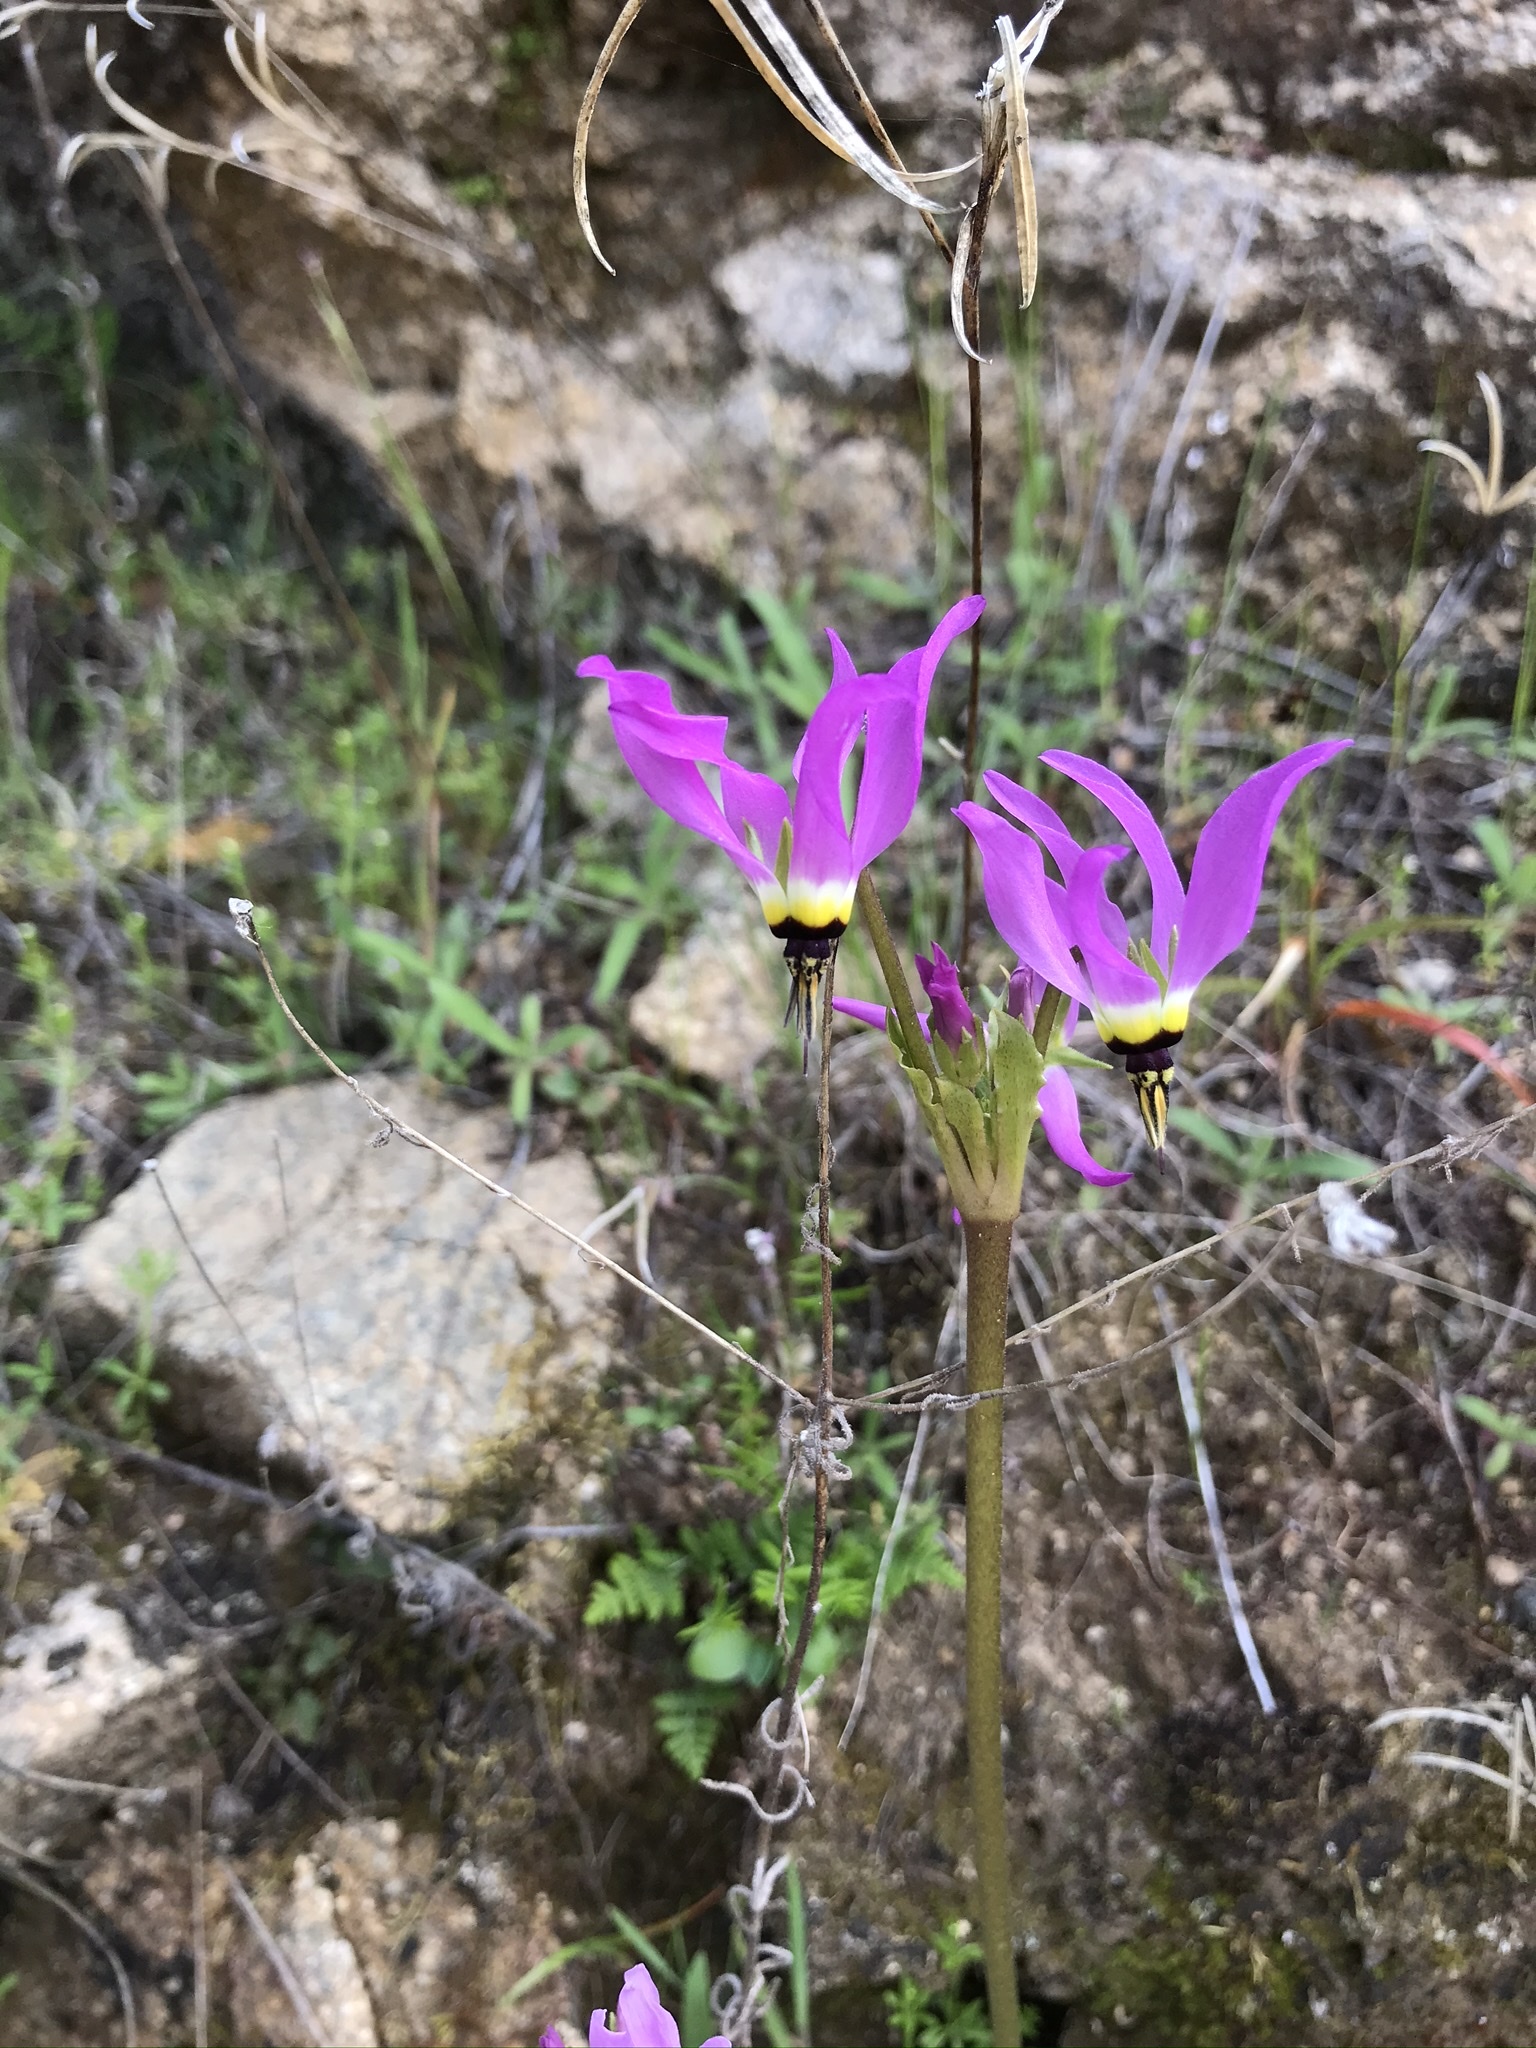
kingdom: Plantae
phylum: Tracheophyta
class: Magnoliopsida
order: Ericales
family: Primulaceae
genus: Dodecatheon
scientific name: Dodecatheon clevelandii
